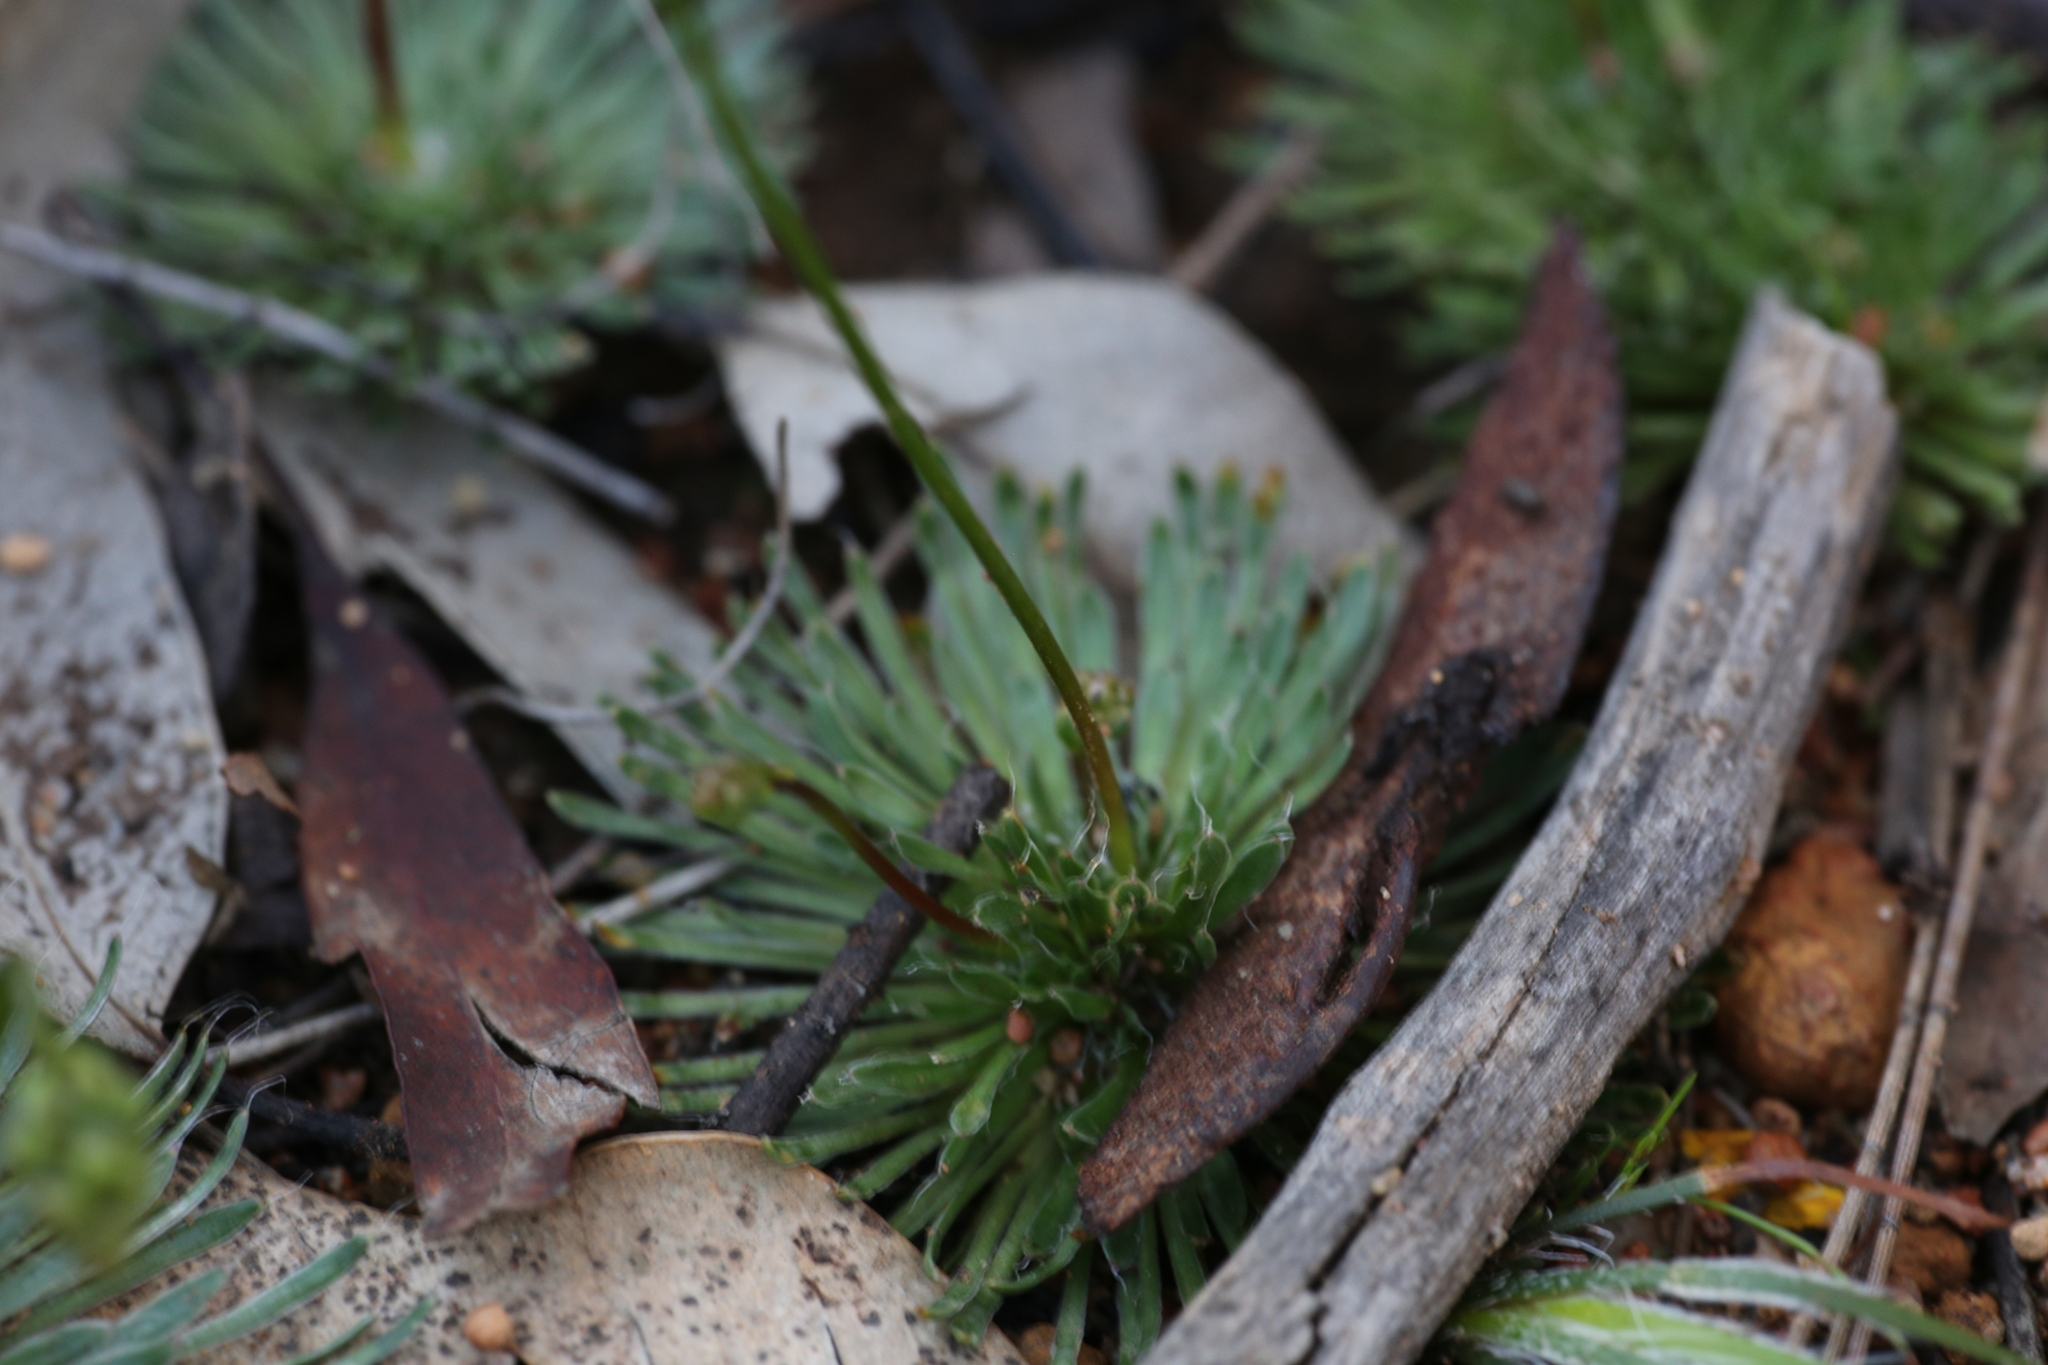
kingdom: Plantae
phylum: Tracheophyta
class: Magnoliopsida
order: Asterales
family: Stylidiaceae
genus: Stylidium
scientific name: Stylidium piliferum
